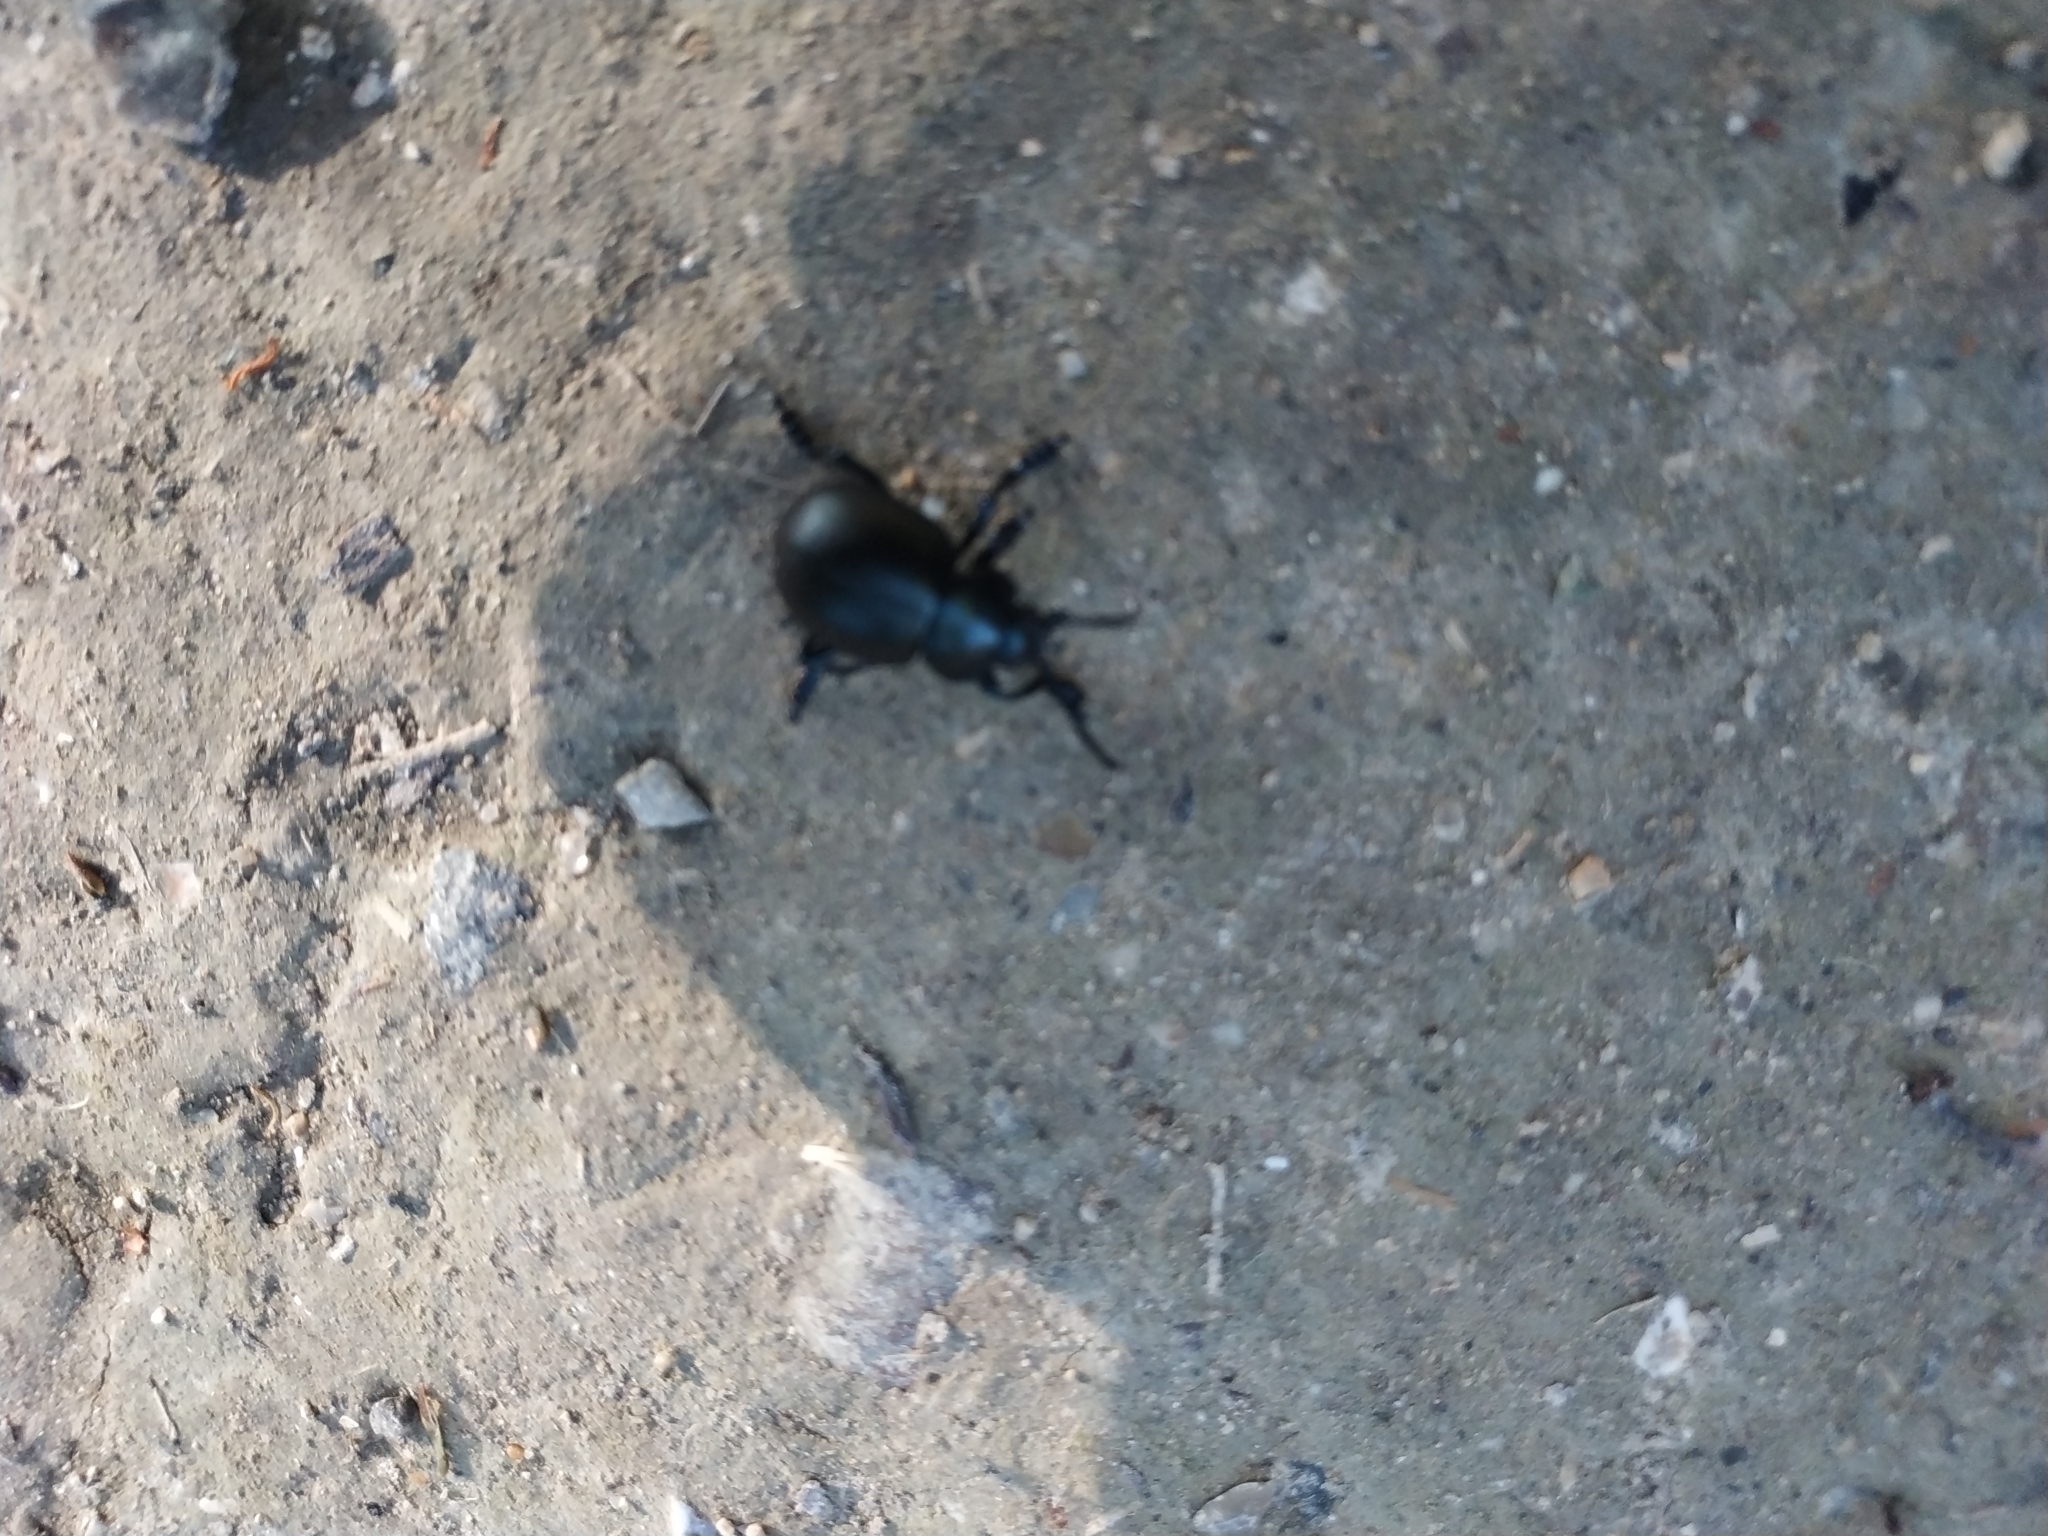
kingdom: Animalia
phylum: Arthropoda
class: Insecta
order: Coleoptera
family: Chrysomelidae
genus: Timarcha
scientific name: Timarcha tenebricosa
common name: Bloody-nosed beetle
